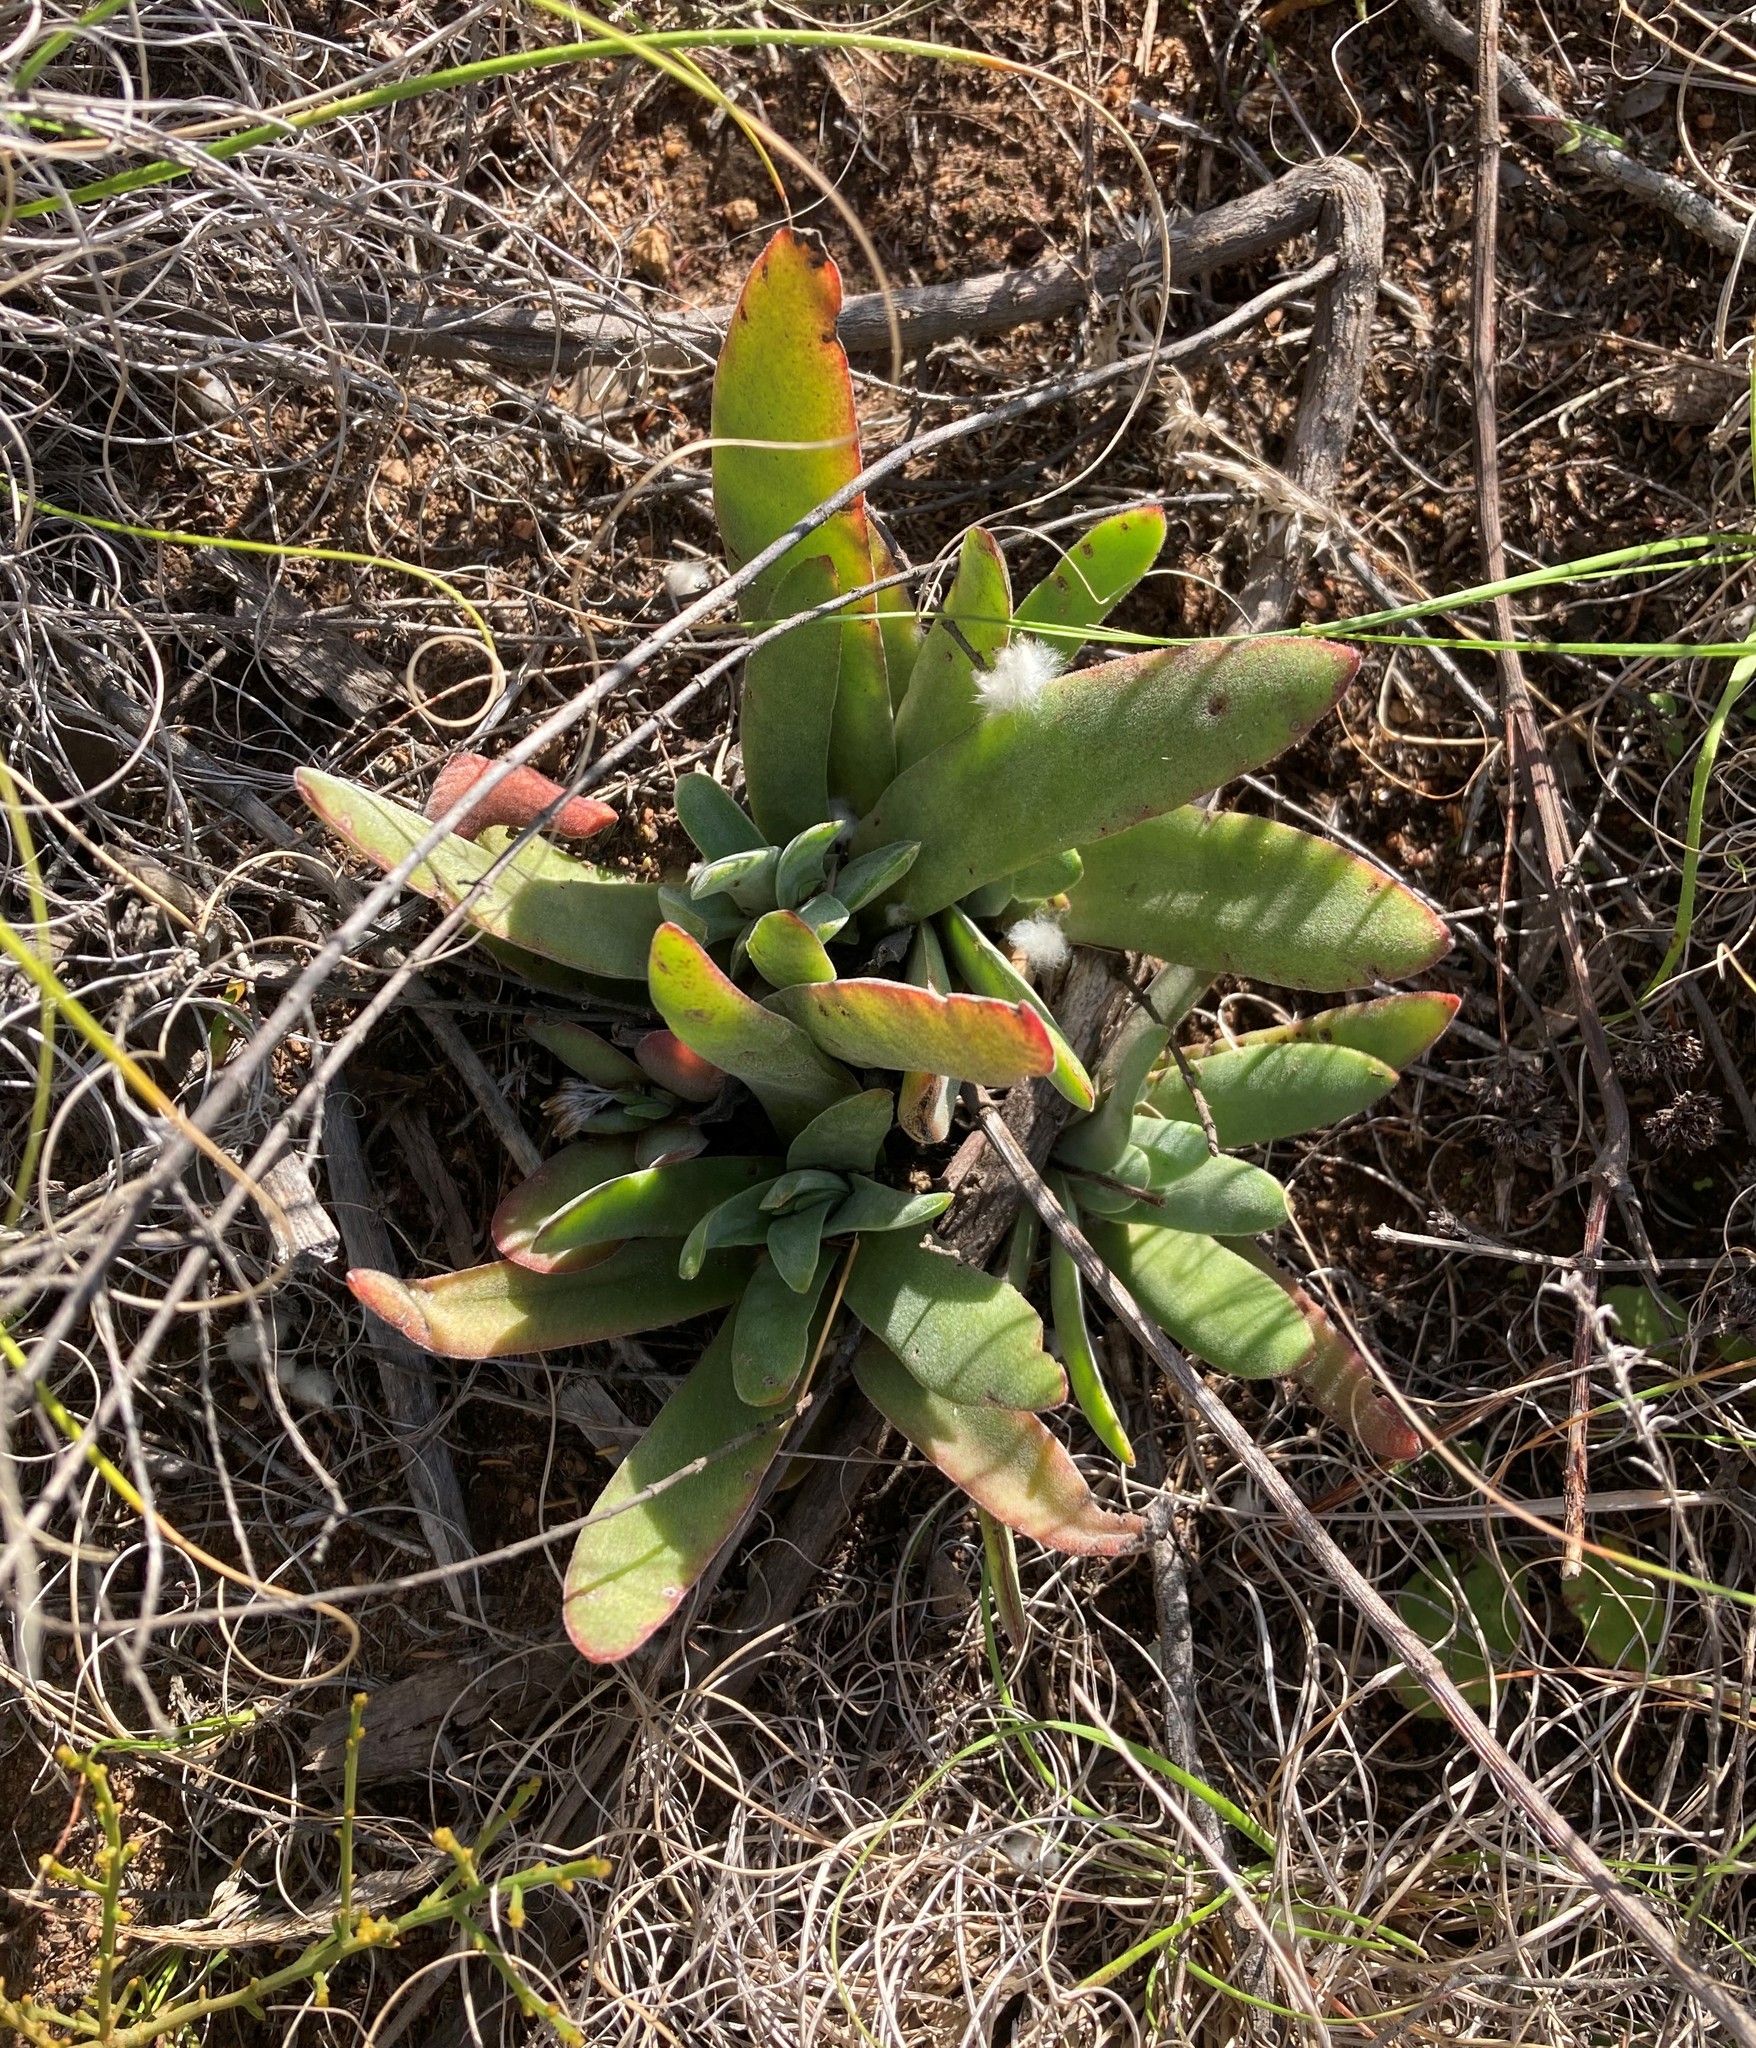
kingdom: Plantae
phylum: Tracheophyta
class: Magnoliopsida
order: Saxifragales
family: Crassulaceae
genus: Crassula
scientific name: Crassula nudicaulis
